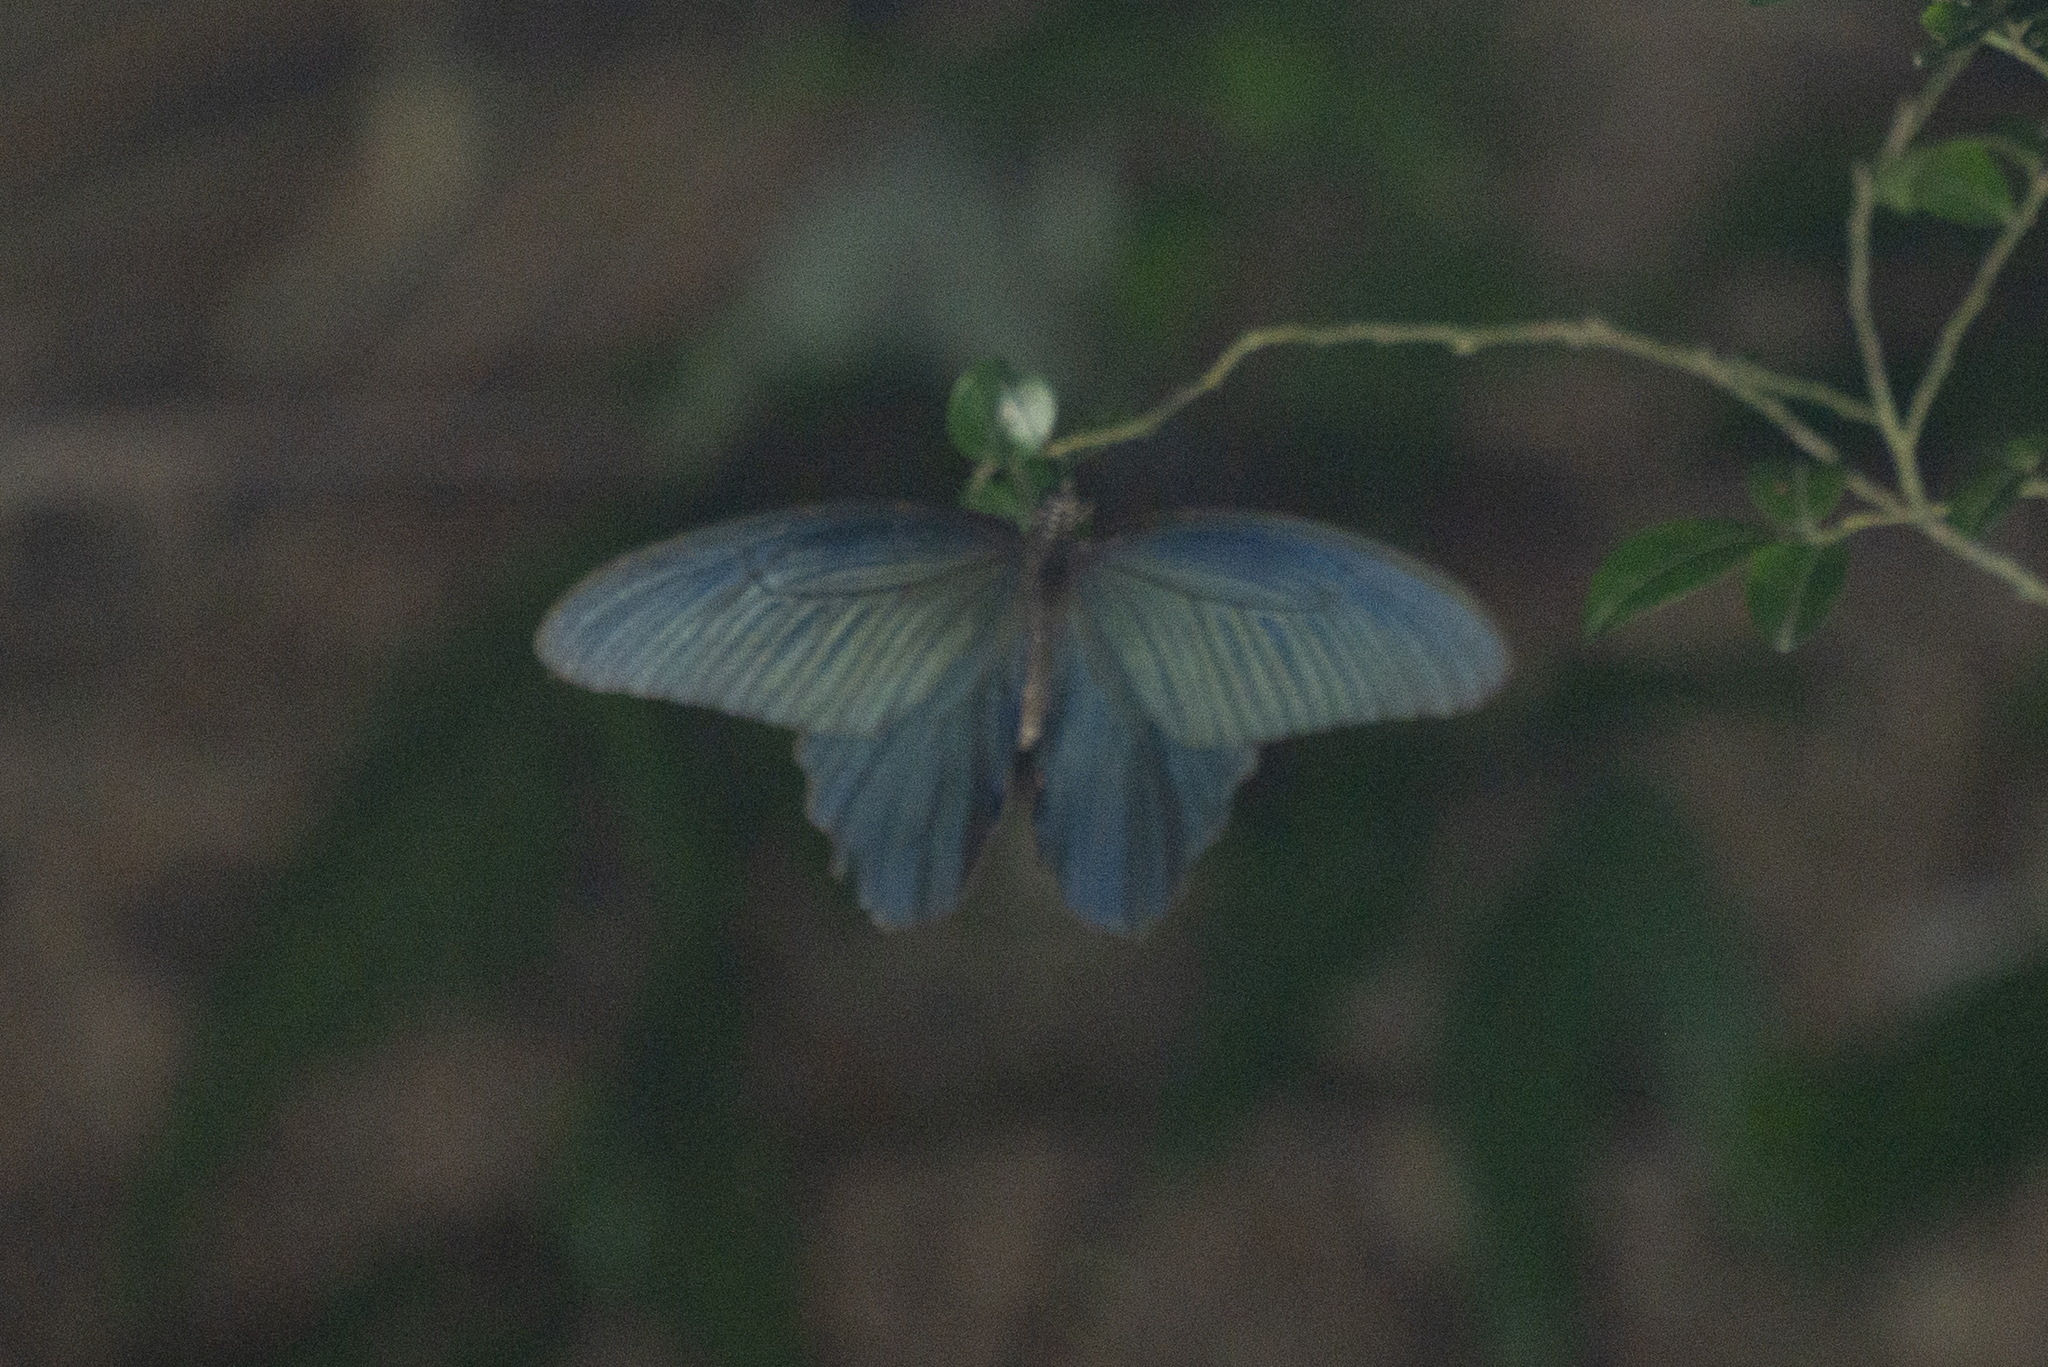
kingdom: Animalia
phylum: Arthropoda
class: Insecta
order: Lepidoptera
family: Papilionidae
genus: Papilio
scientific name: Papilio protenor
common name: Spangle
